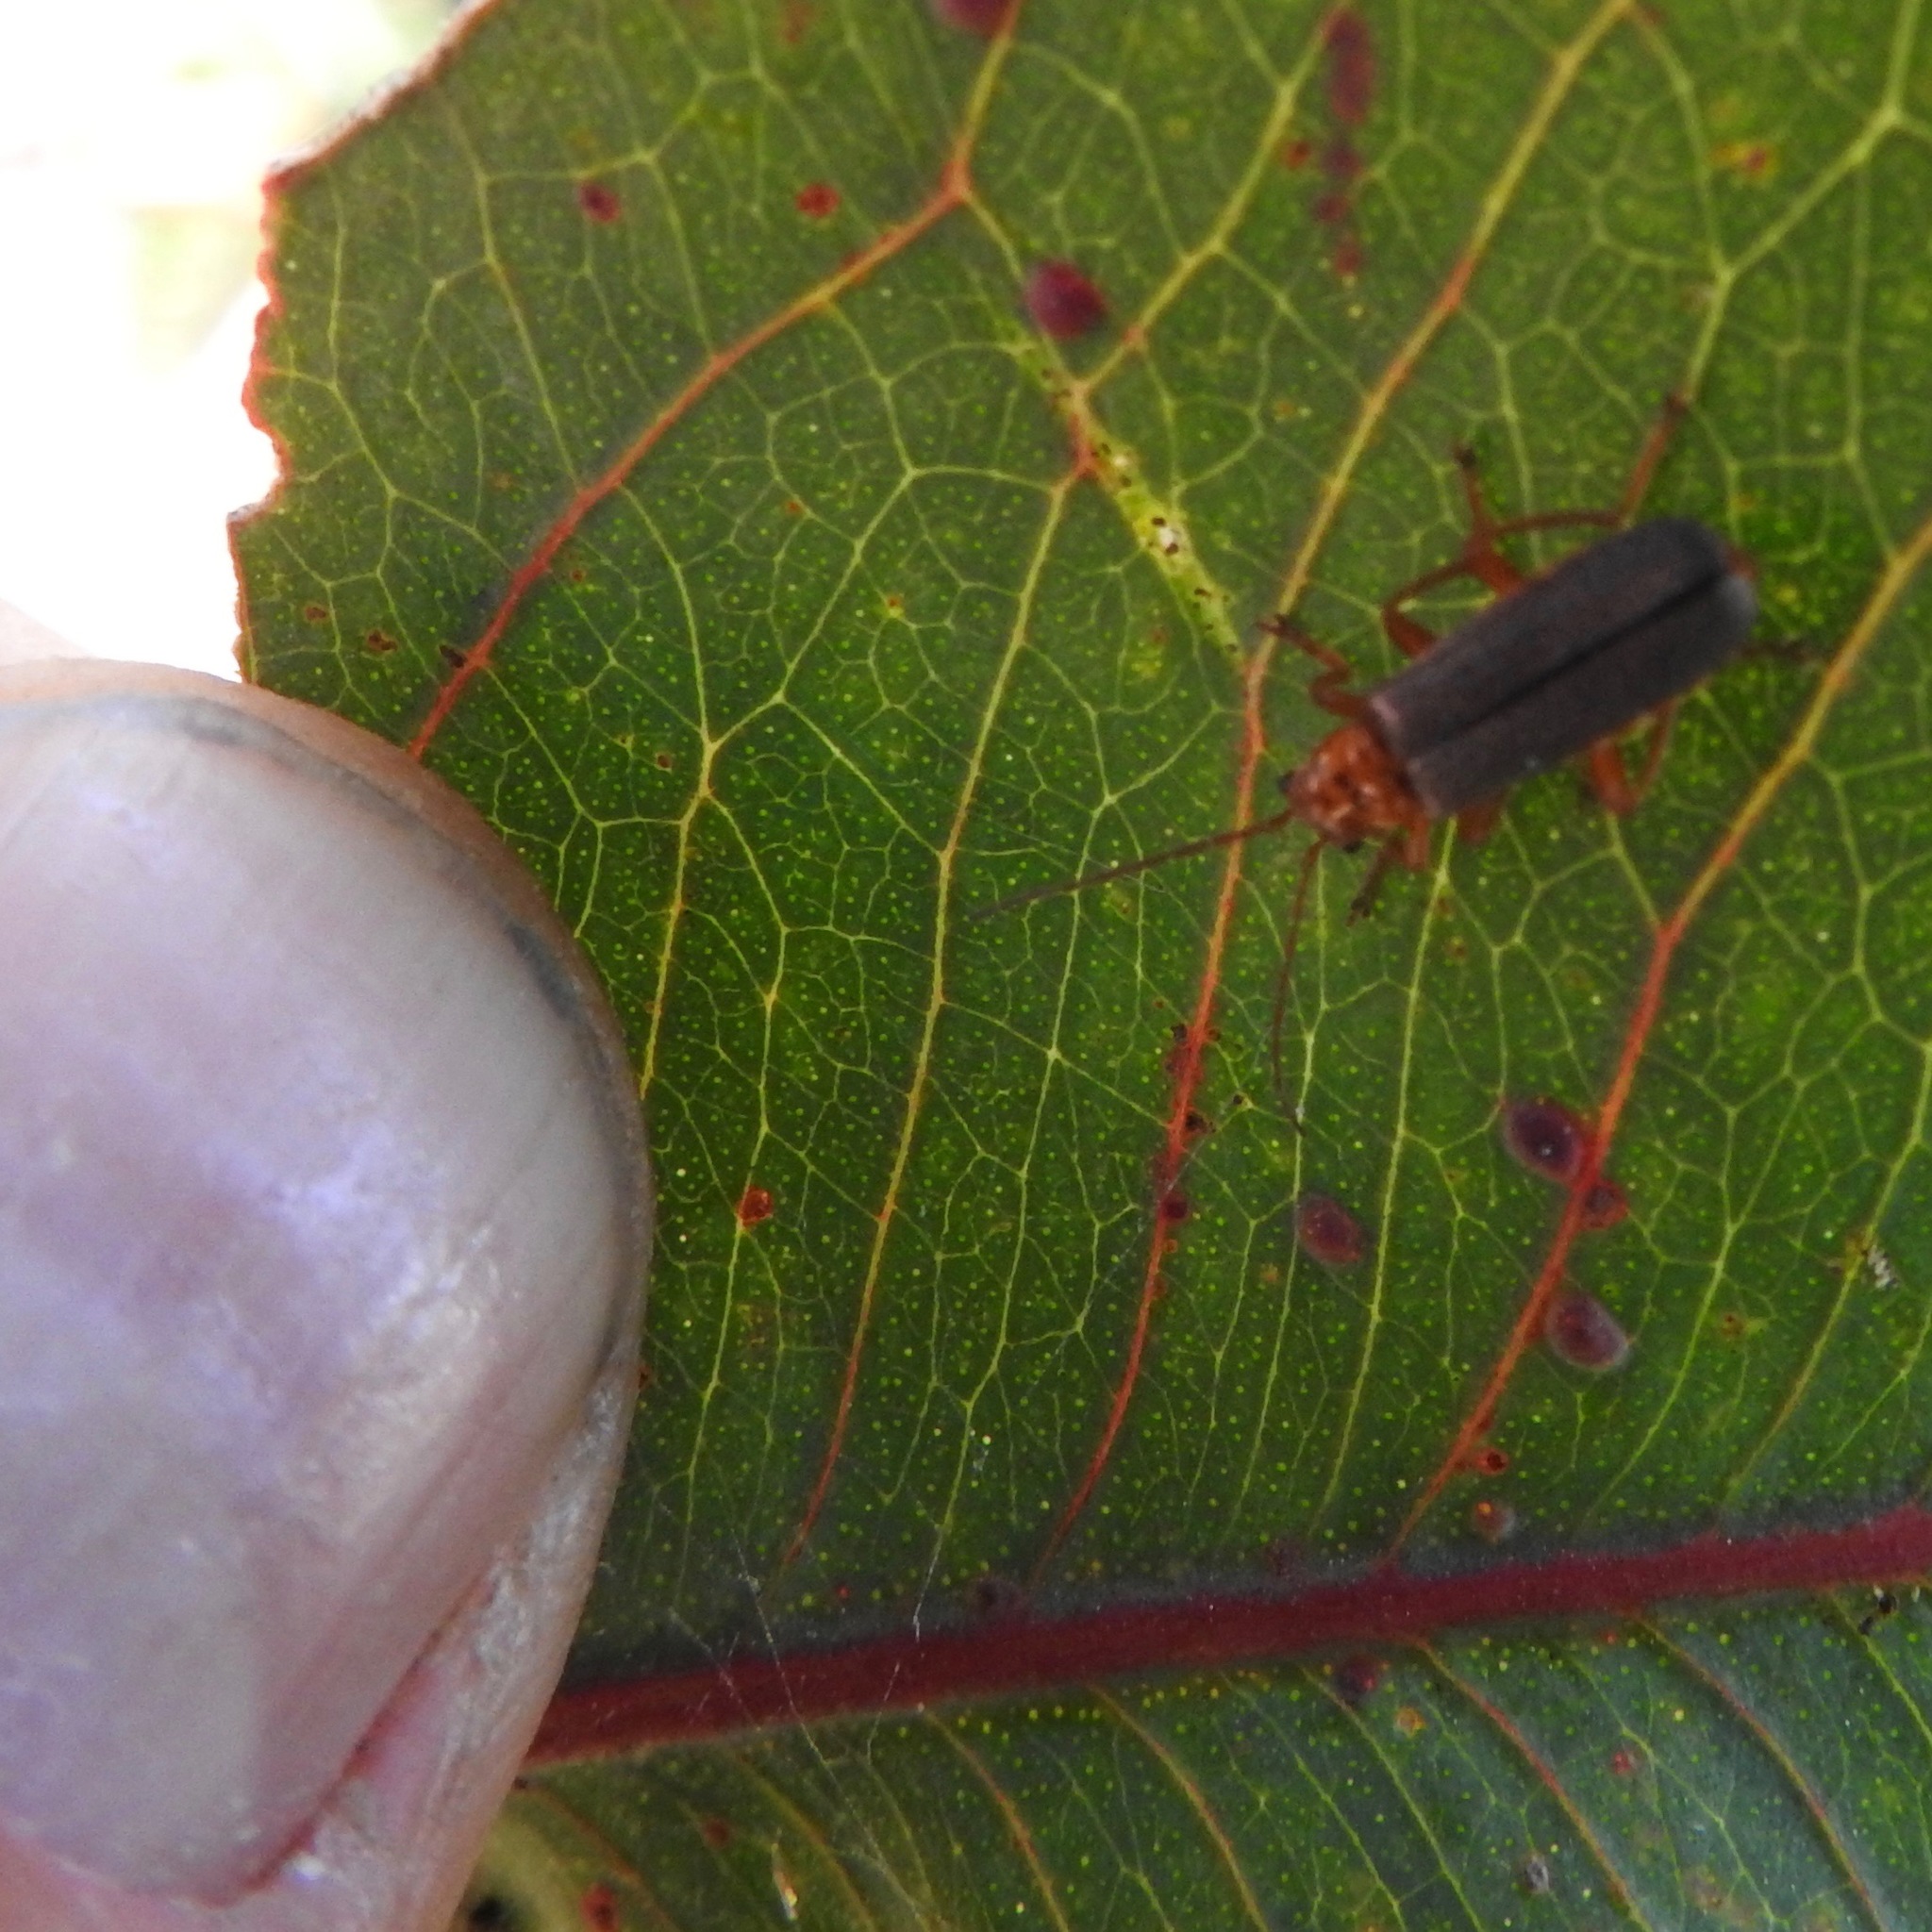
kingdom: Animalia
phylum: Arthropoda
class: Insecta
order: Coleoptera
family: Cantharidae
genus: Cultellunguis
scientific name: Cultellunguis americanus
